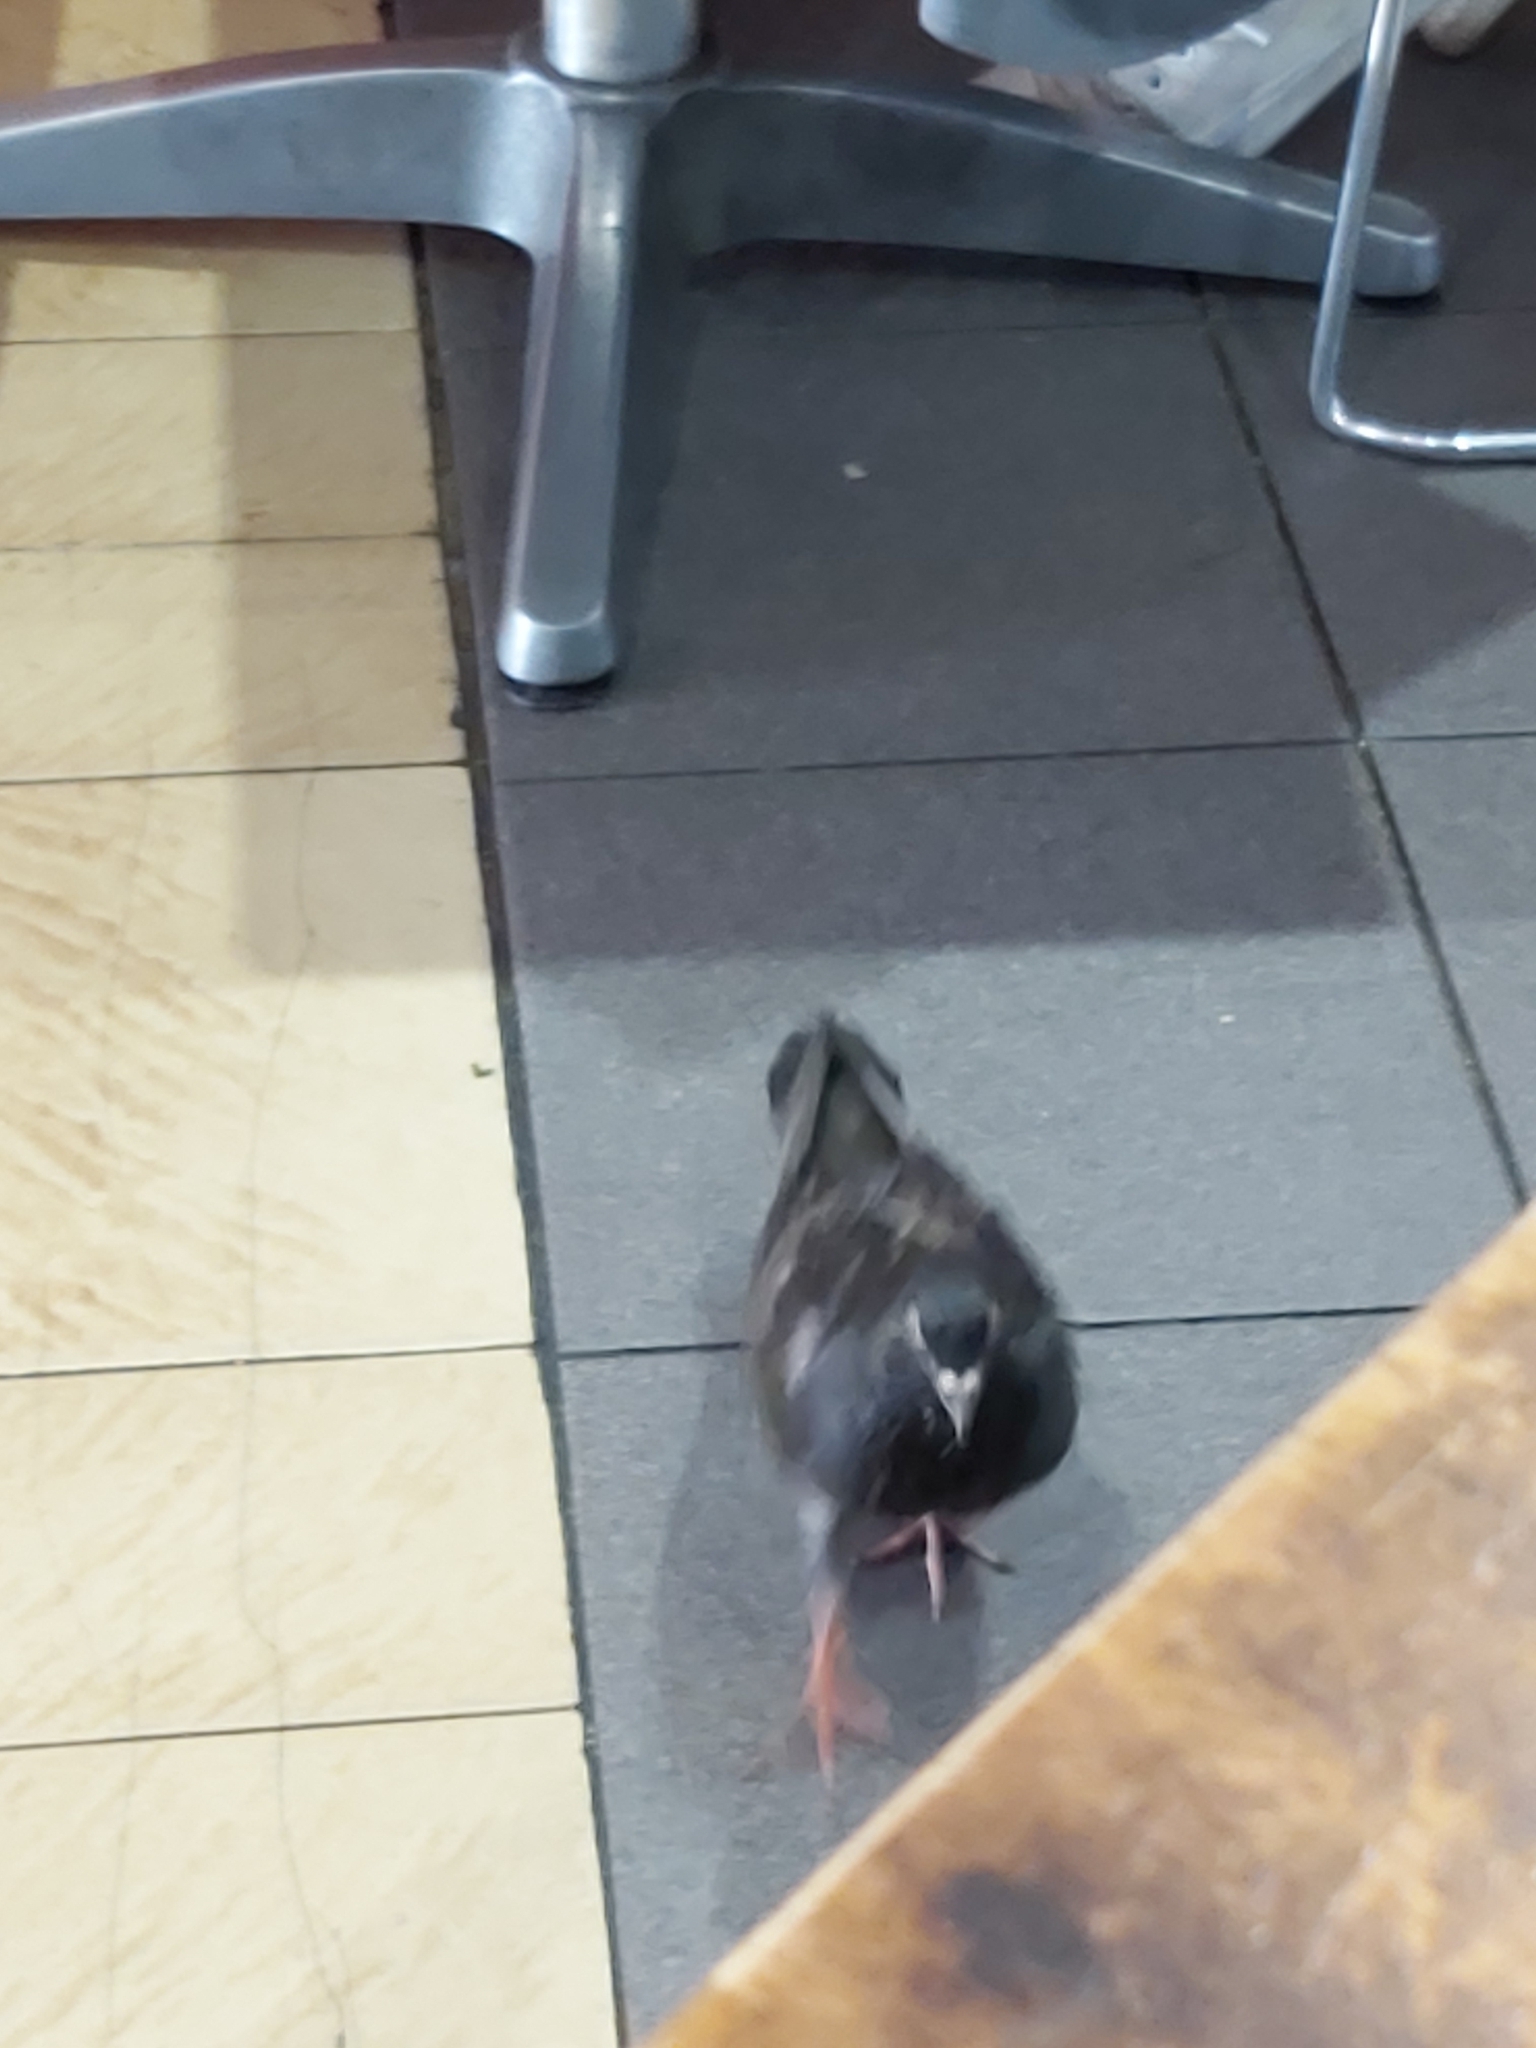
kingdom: Animalia
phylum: Chordata
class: Aves
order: Columbiformes
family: Columbidae
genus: Columba
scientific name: Columba livia
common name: Rock pigeon
